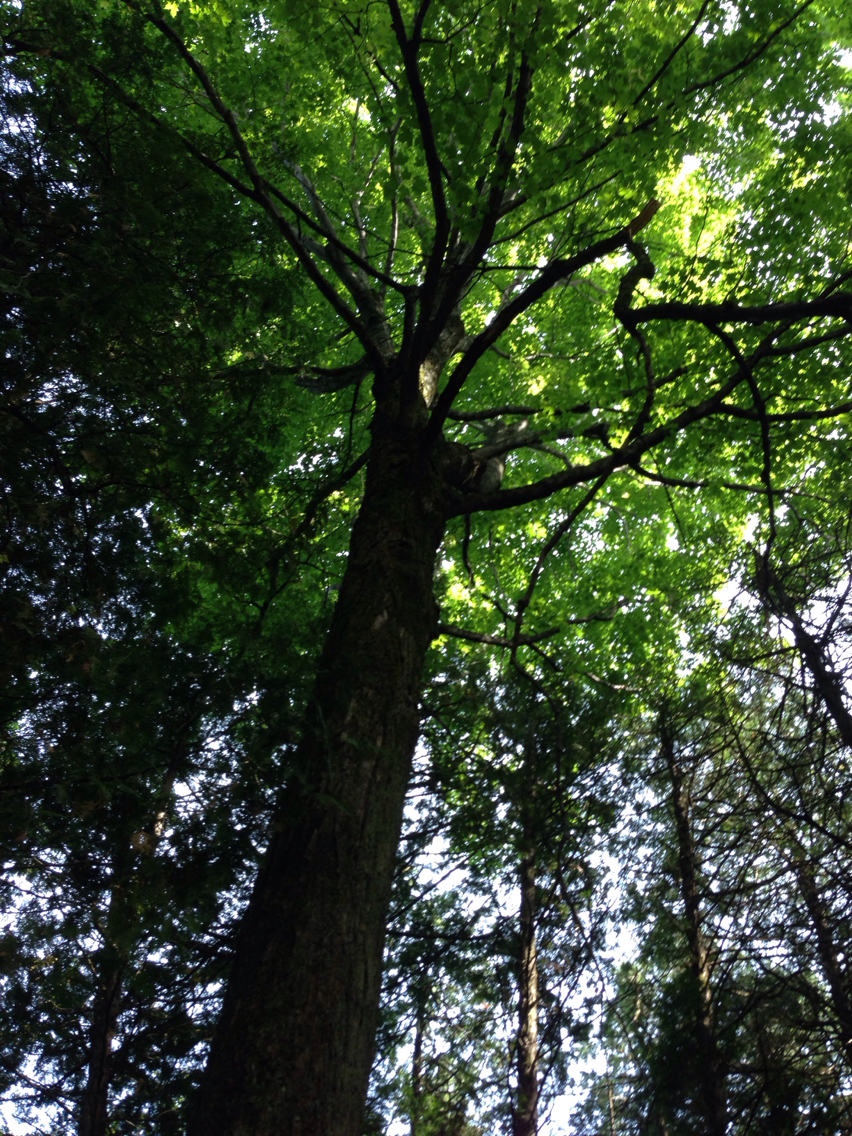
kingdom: Plantae
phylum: Tracheophyta
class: Magnoliopsida
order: Sapindales
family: Sapindaceae
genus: Acer
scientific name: Acer saccharum
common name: Sugar maple
